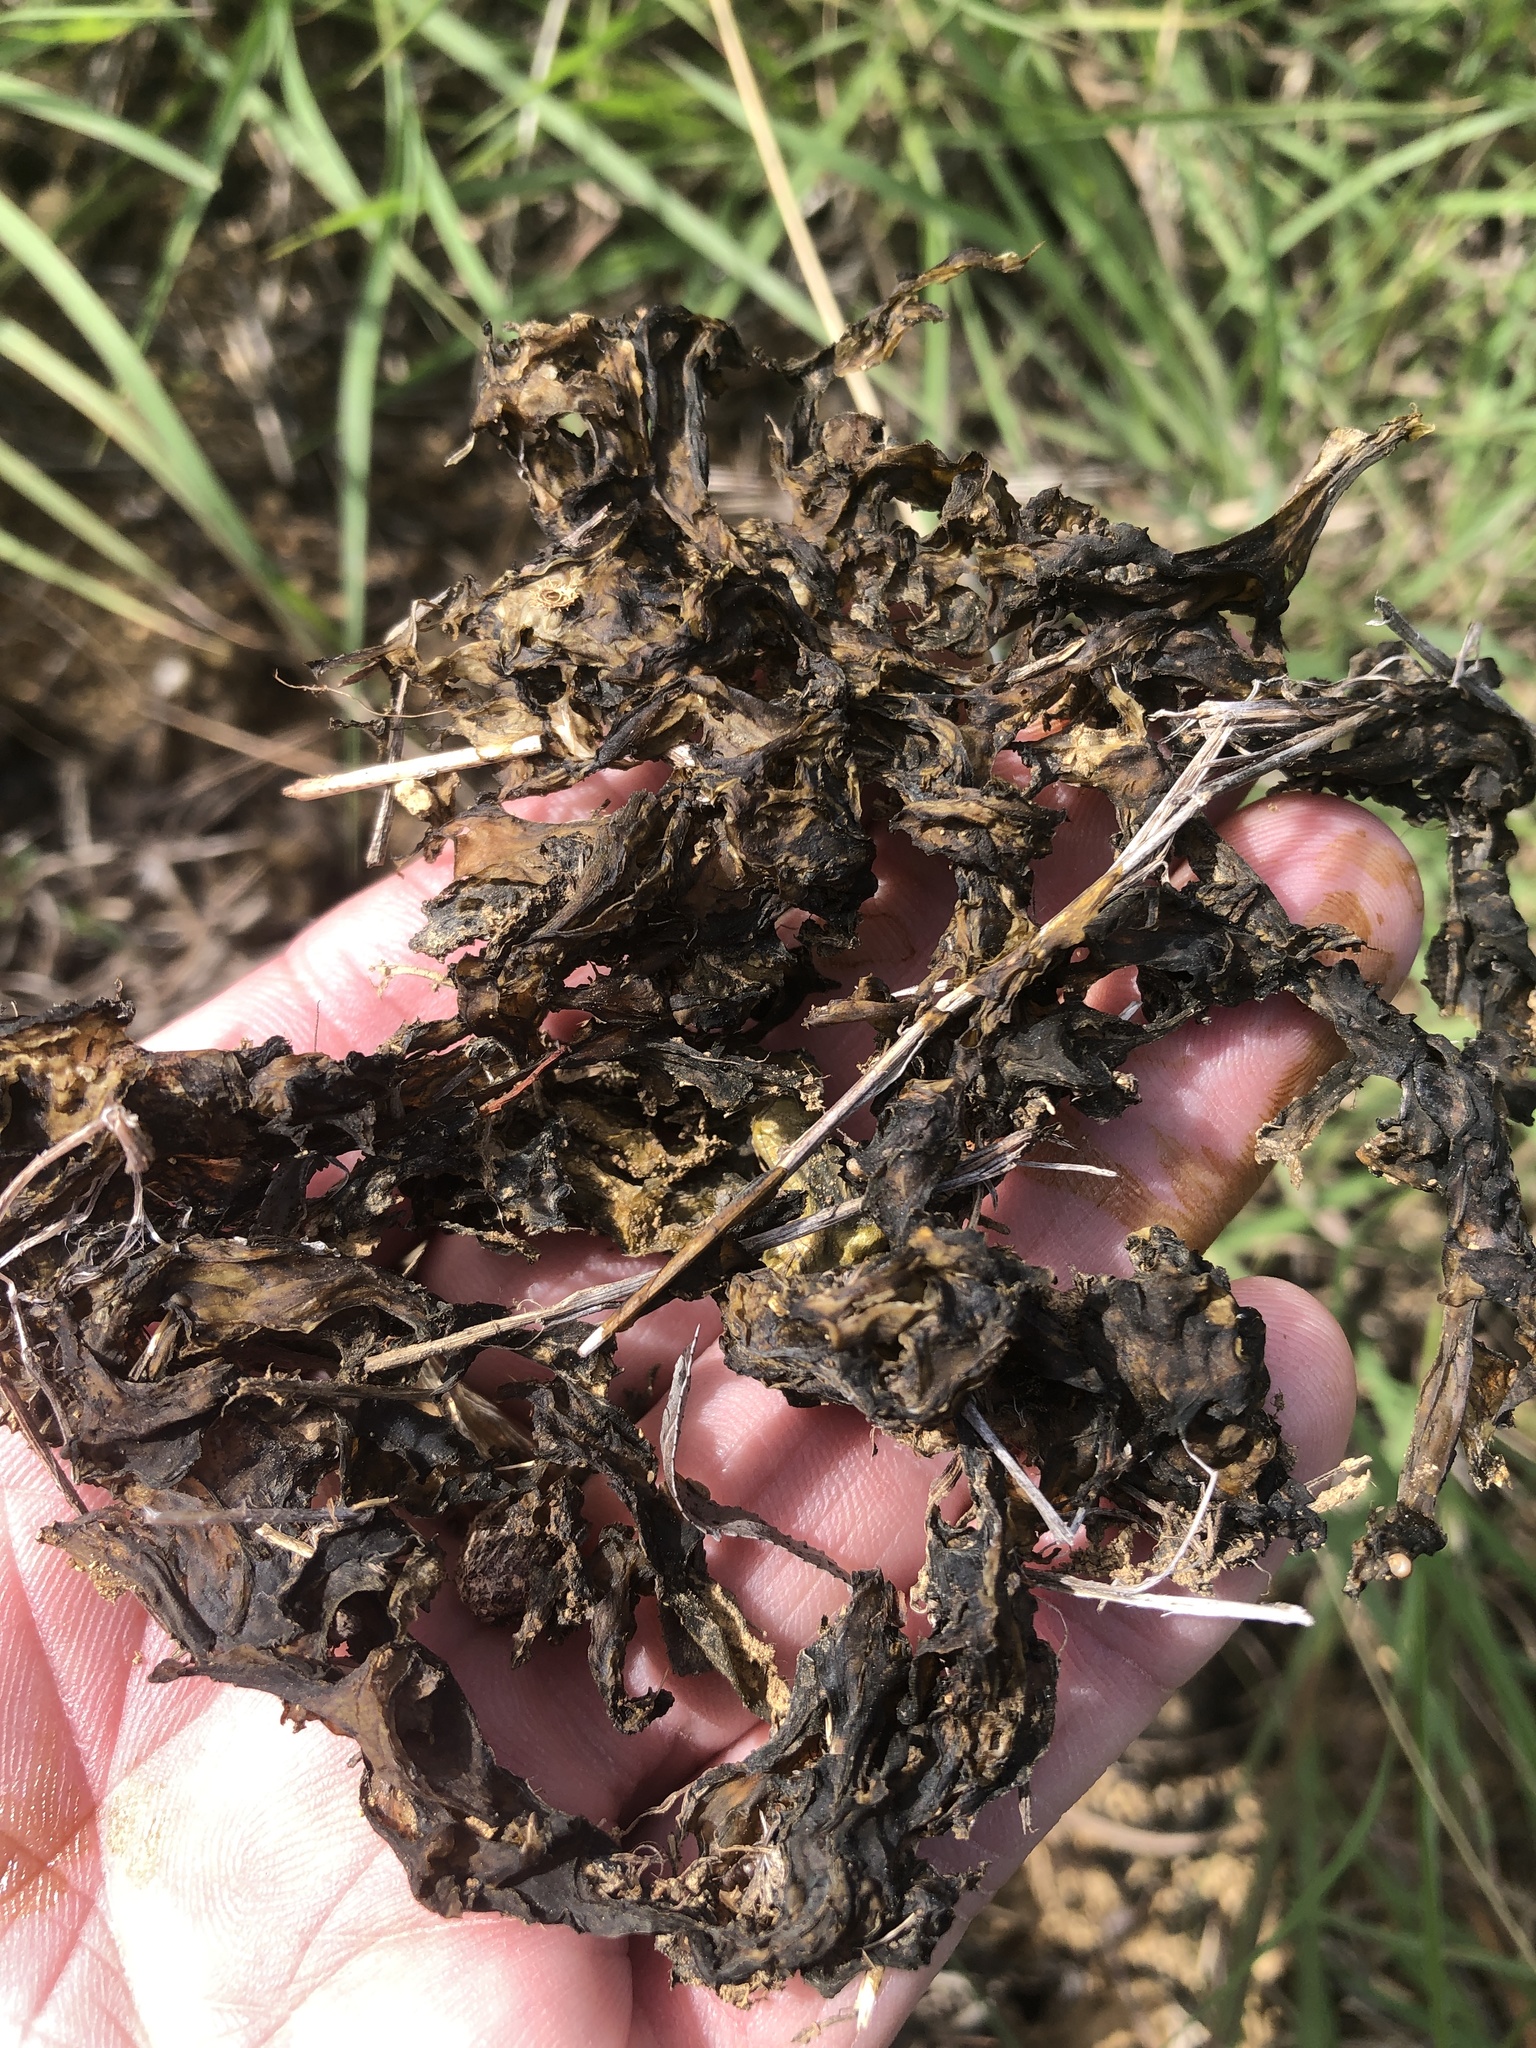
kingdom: Bacteria
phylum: Cyanobacteria
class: Cyanobacteriia
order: Cyanobacteriales
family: Nostocaceae
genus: Nostoc
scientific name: Nostoc commune
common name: Star jelly
